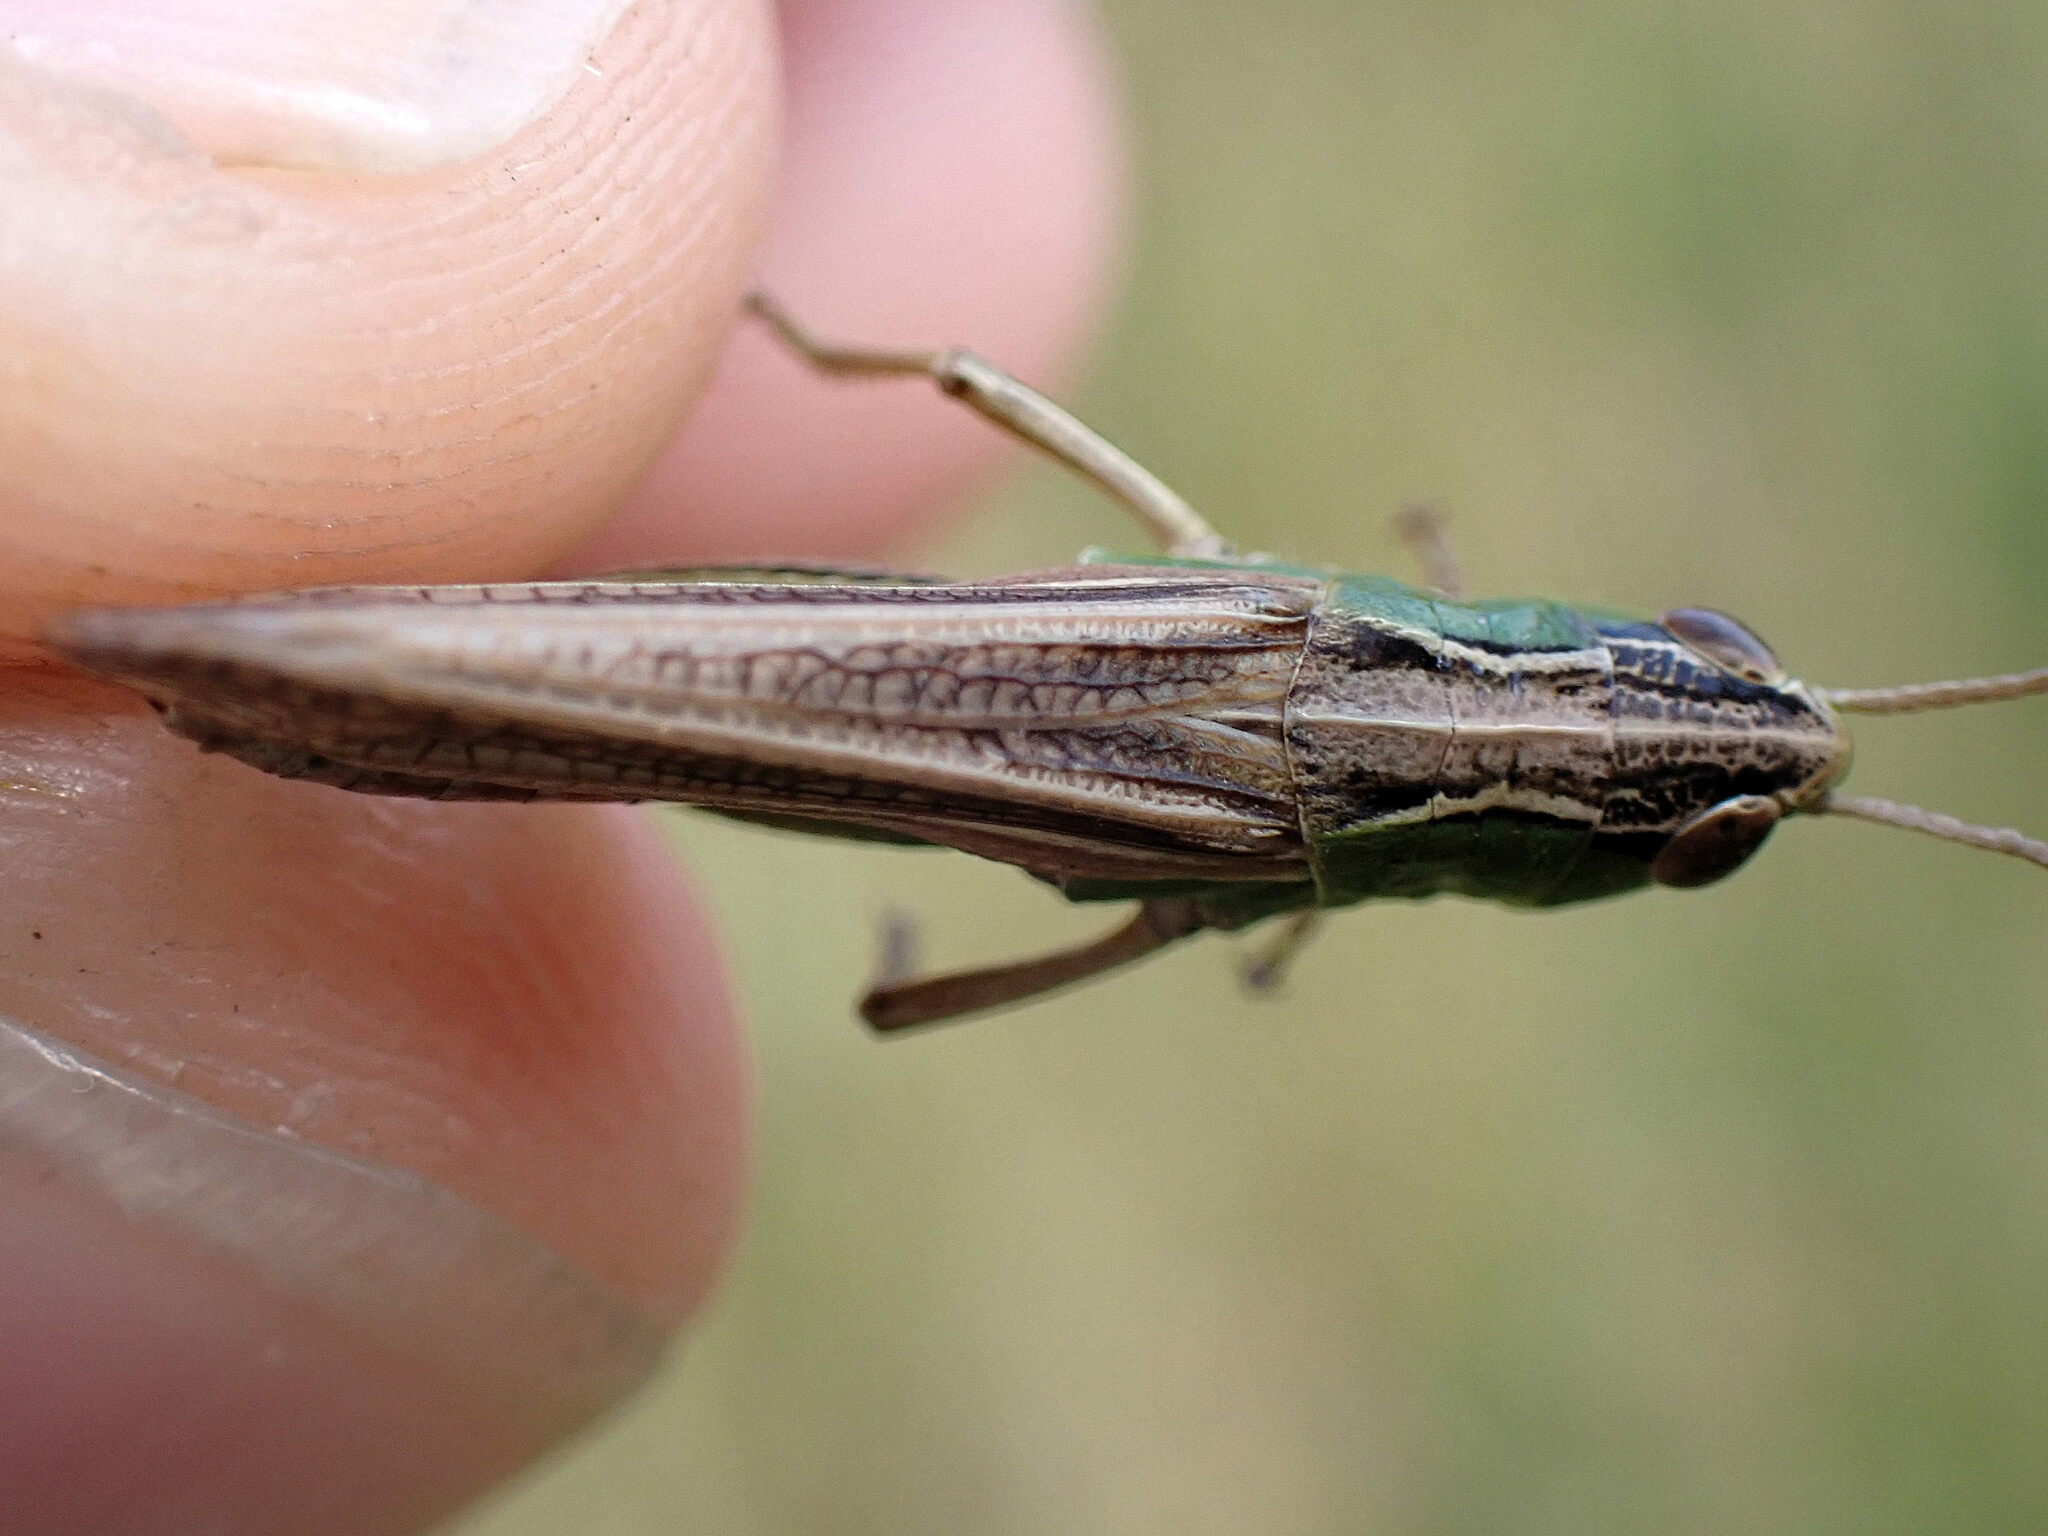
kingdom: Animalia
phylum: Arthropoda
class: Insecta
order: Orthoptera
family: Acrididae
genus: Pseudochorthippus
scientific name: Pseudochorthippus parallelus
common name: Meadow grasshopper
